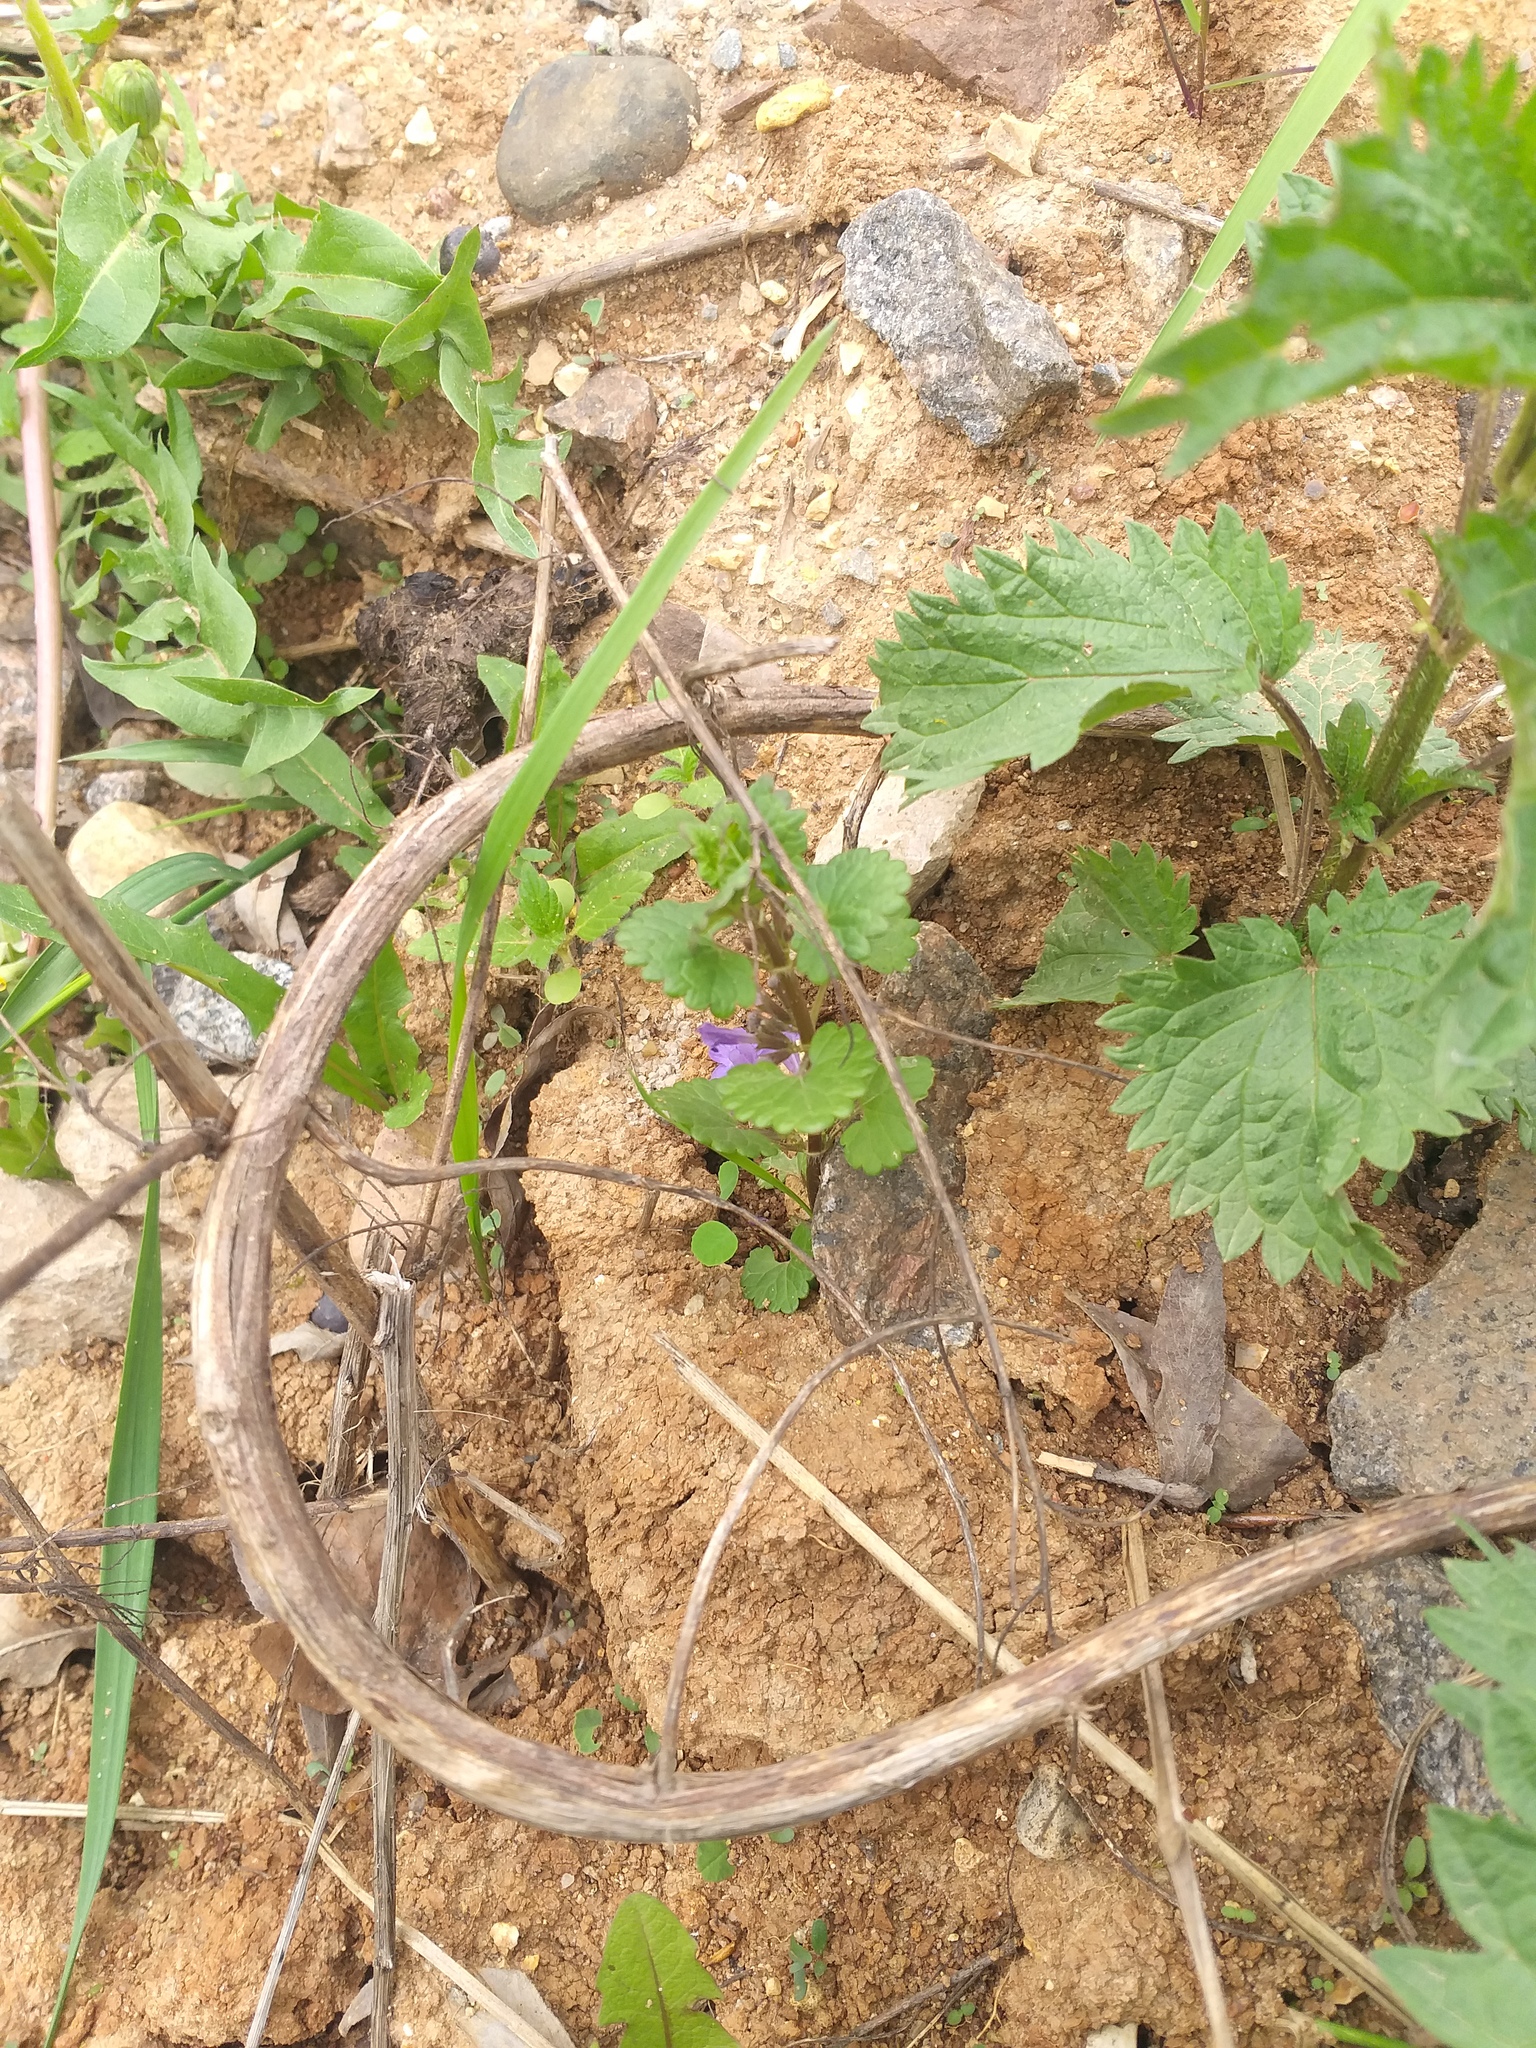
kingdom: Plantae
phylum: Tracheophyta
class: Magnoliopsida
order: Lamiales
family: Lamiaceae
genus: Glechoma
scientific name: Glechoma hederacea
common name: Ground ivy
